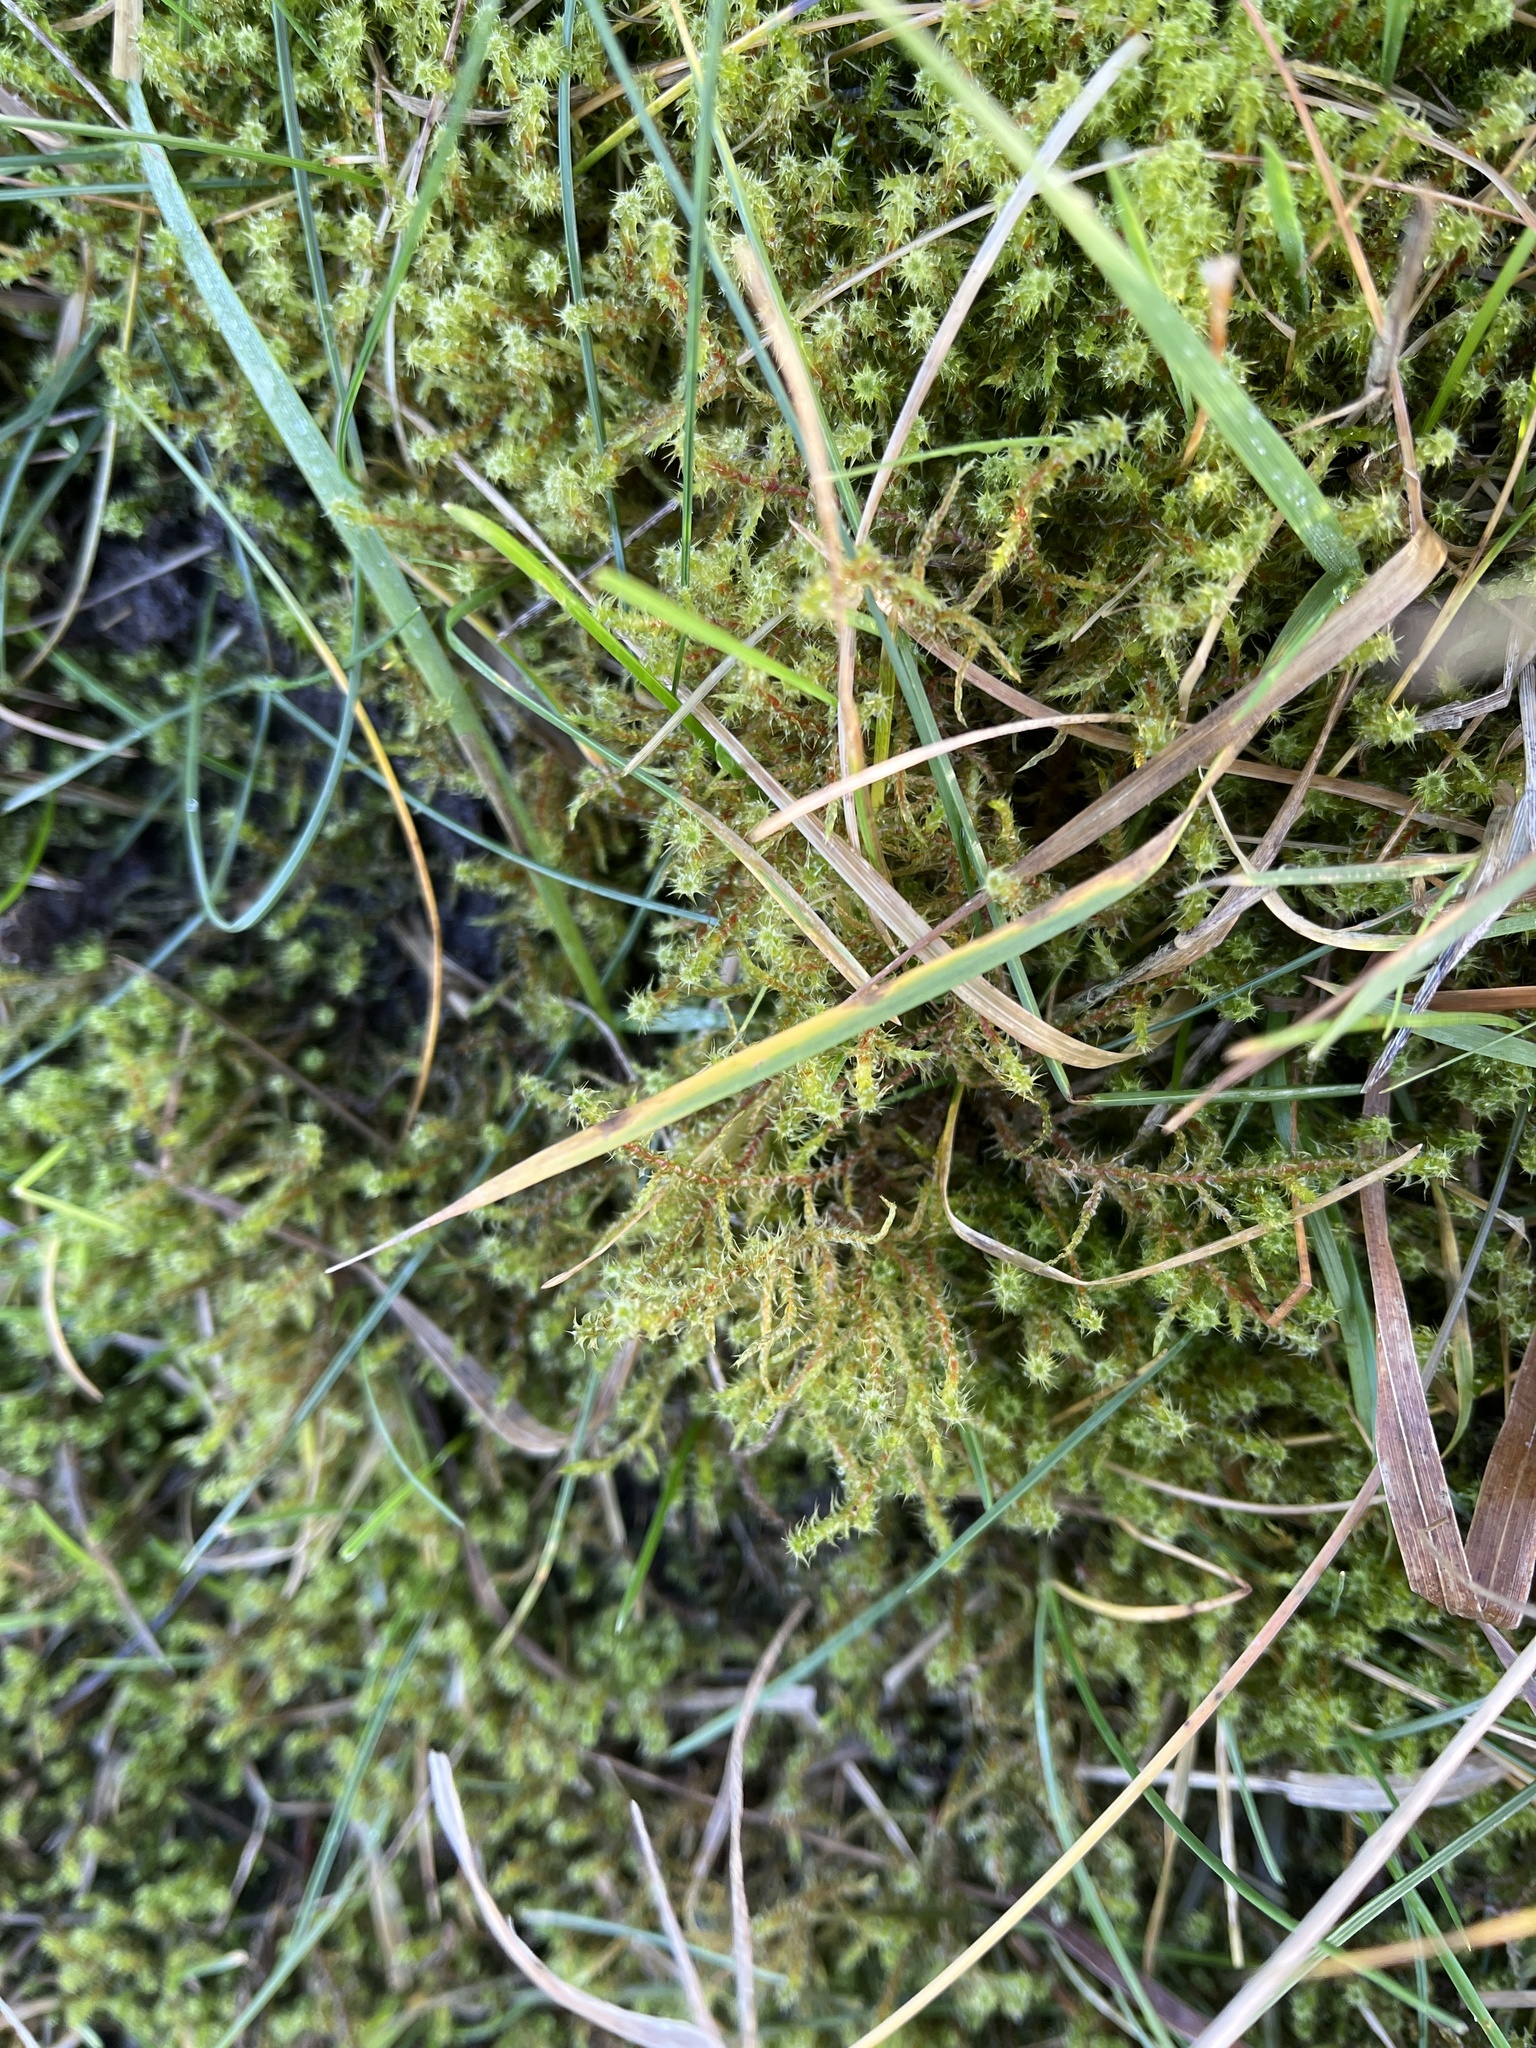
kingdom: Plantae
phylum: Bryophyta
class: Bryopsida
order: Hypnales
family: Hylocomiaceae
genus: Rhytidiadelphus
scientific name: Rhytidiadelphus squarrosus
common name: Springy turf-moss
